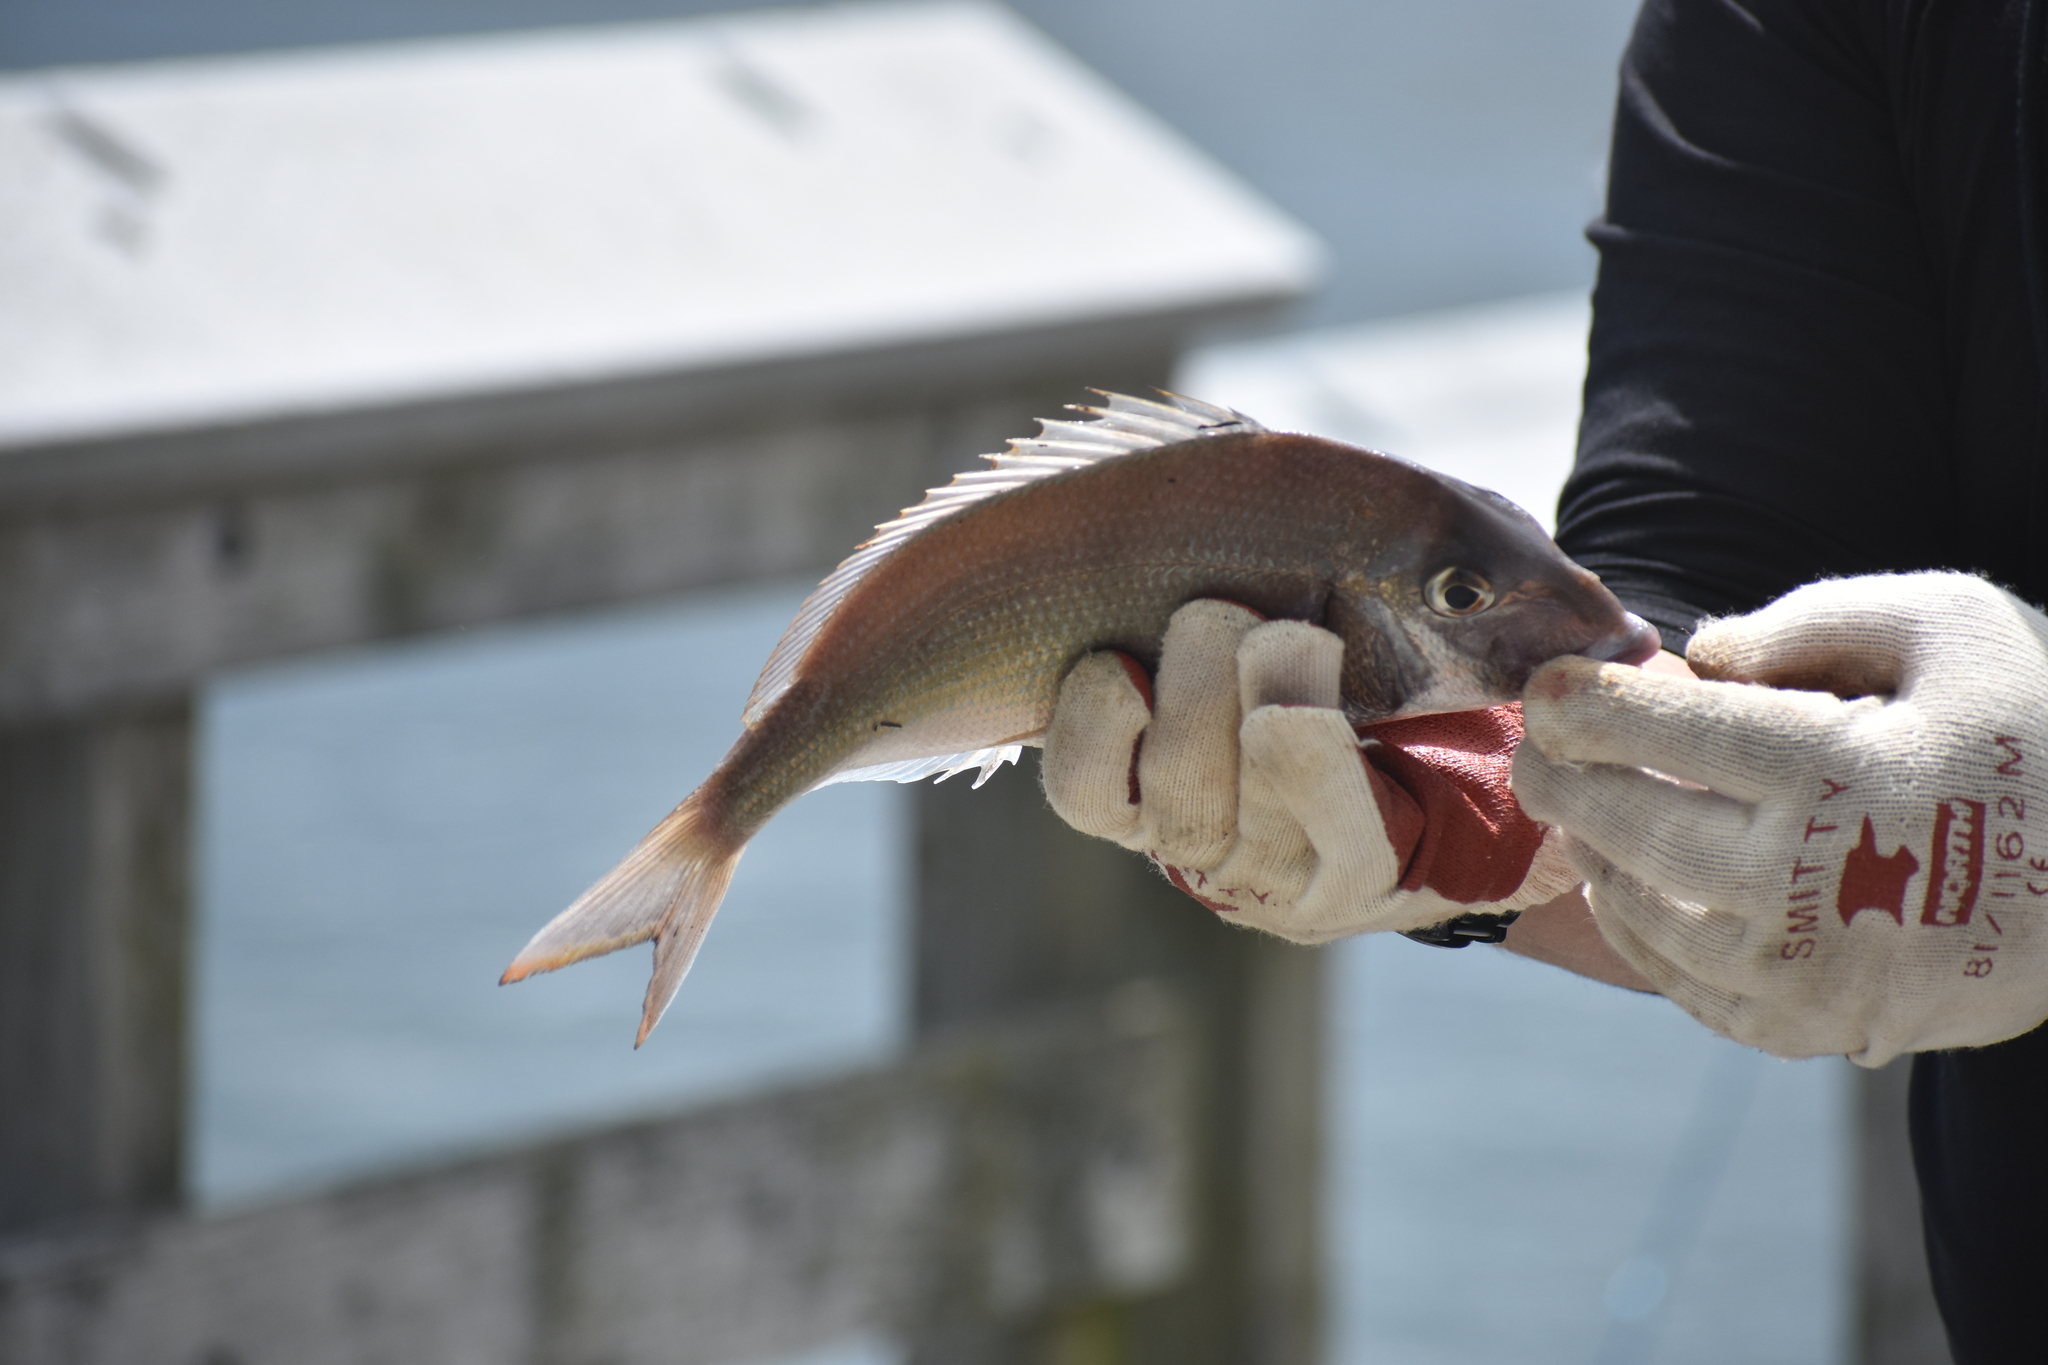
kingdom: Animalia
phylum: Chordata
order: Perciformes
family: Sparidae
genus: Stenotomus
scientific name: Stenotomus chrysops
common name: Scup
